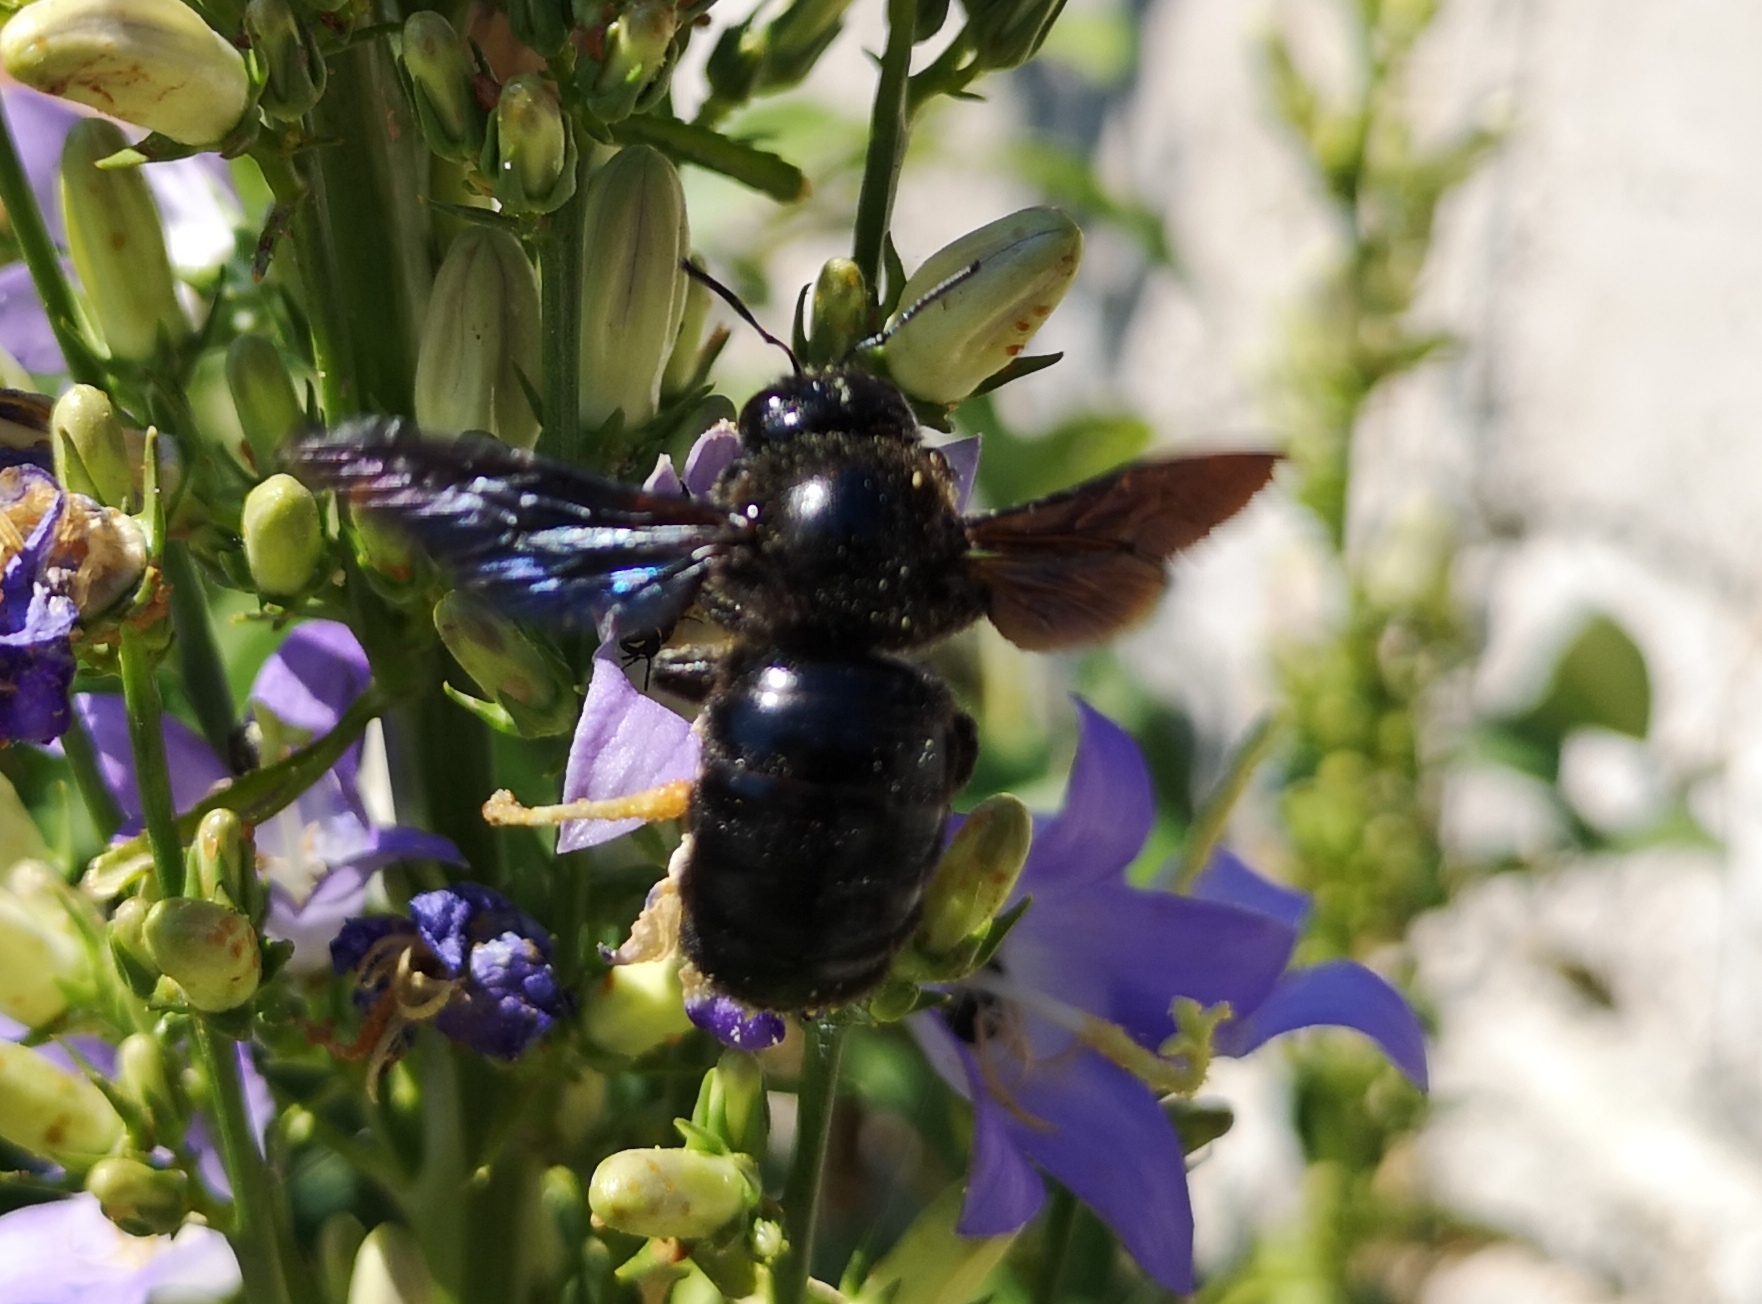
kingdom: Animalia
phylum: Arthropoda
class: Insecta
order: Hymenoptera
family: Apidae
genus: Xylocopa
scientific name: Xylocopa violacea
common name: Violet carpenter bee
